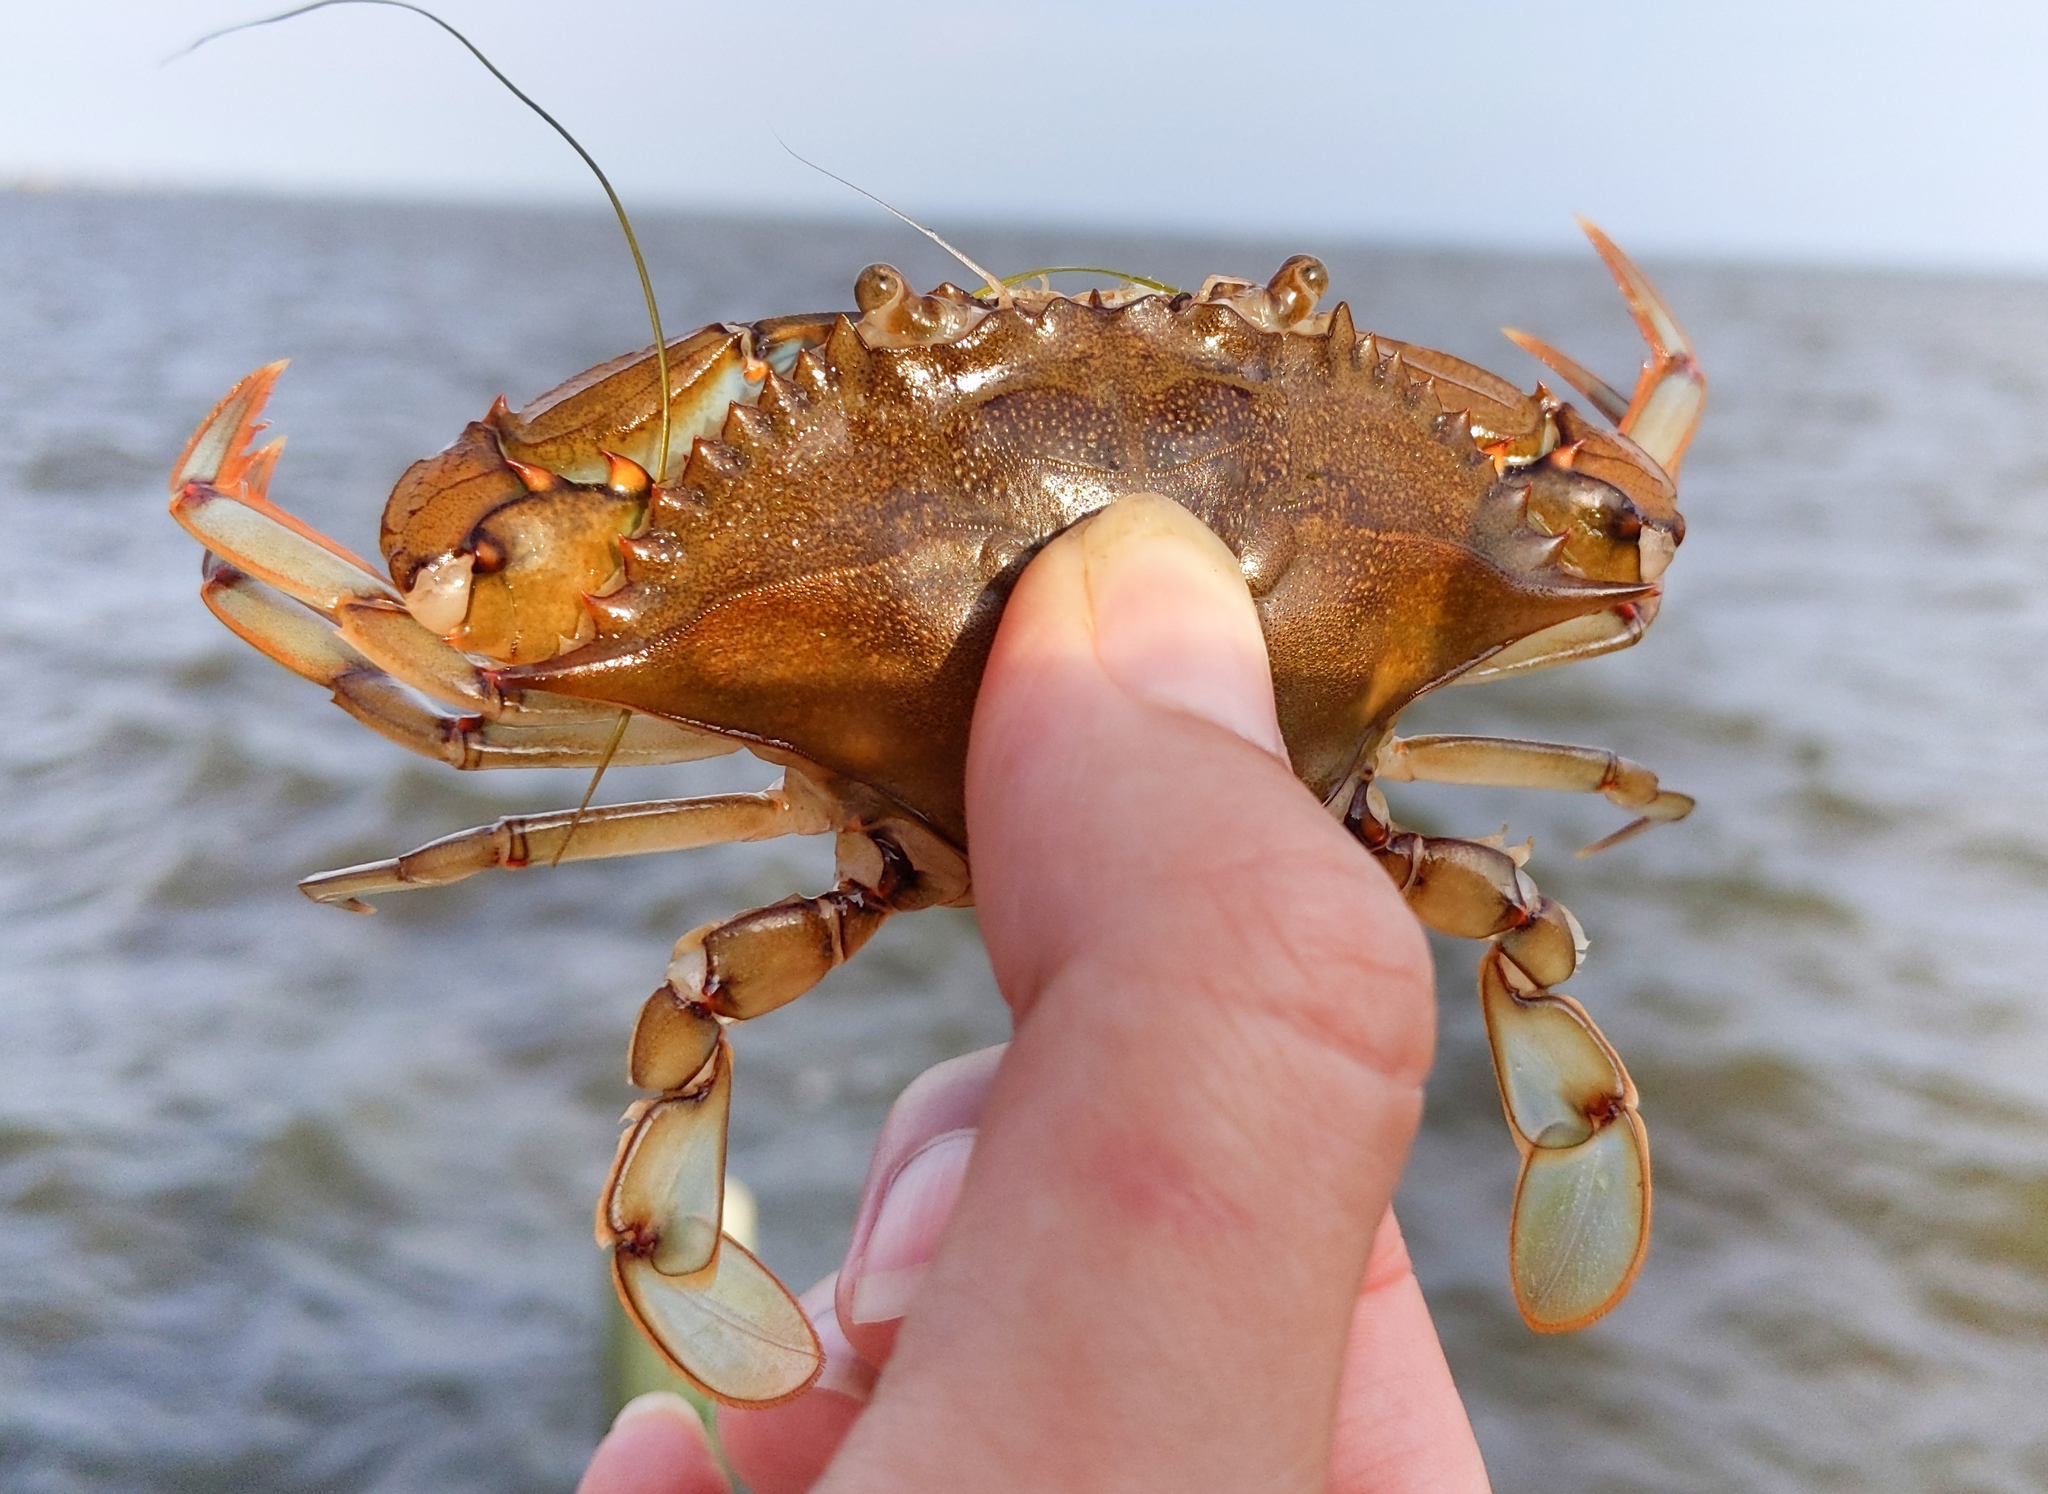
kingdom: Animalia
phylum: Arthropoda
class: Malacostraca
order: Decapoda
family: Portunidae
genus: Callinectes
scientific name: Callinectes sapidus
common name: Blue crab
